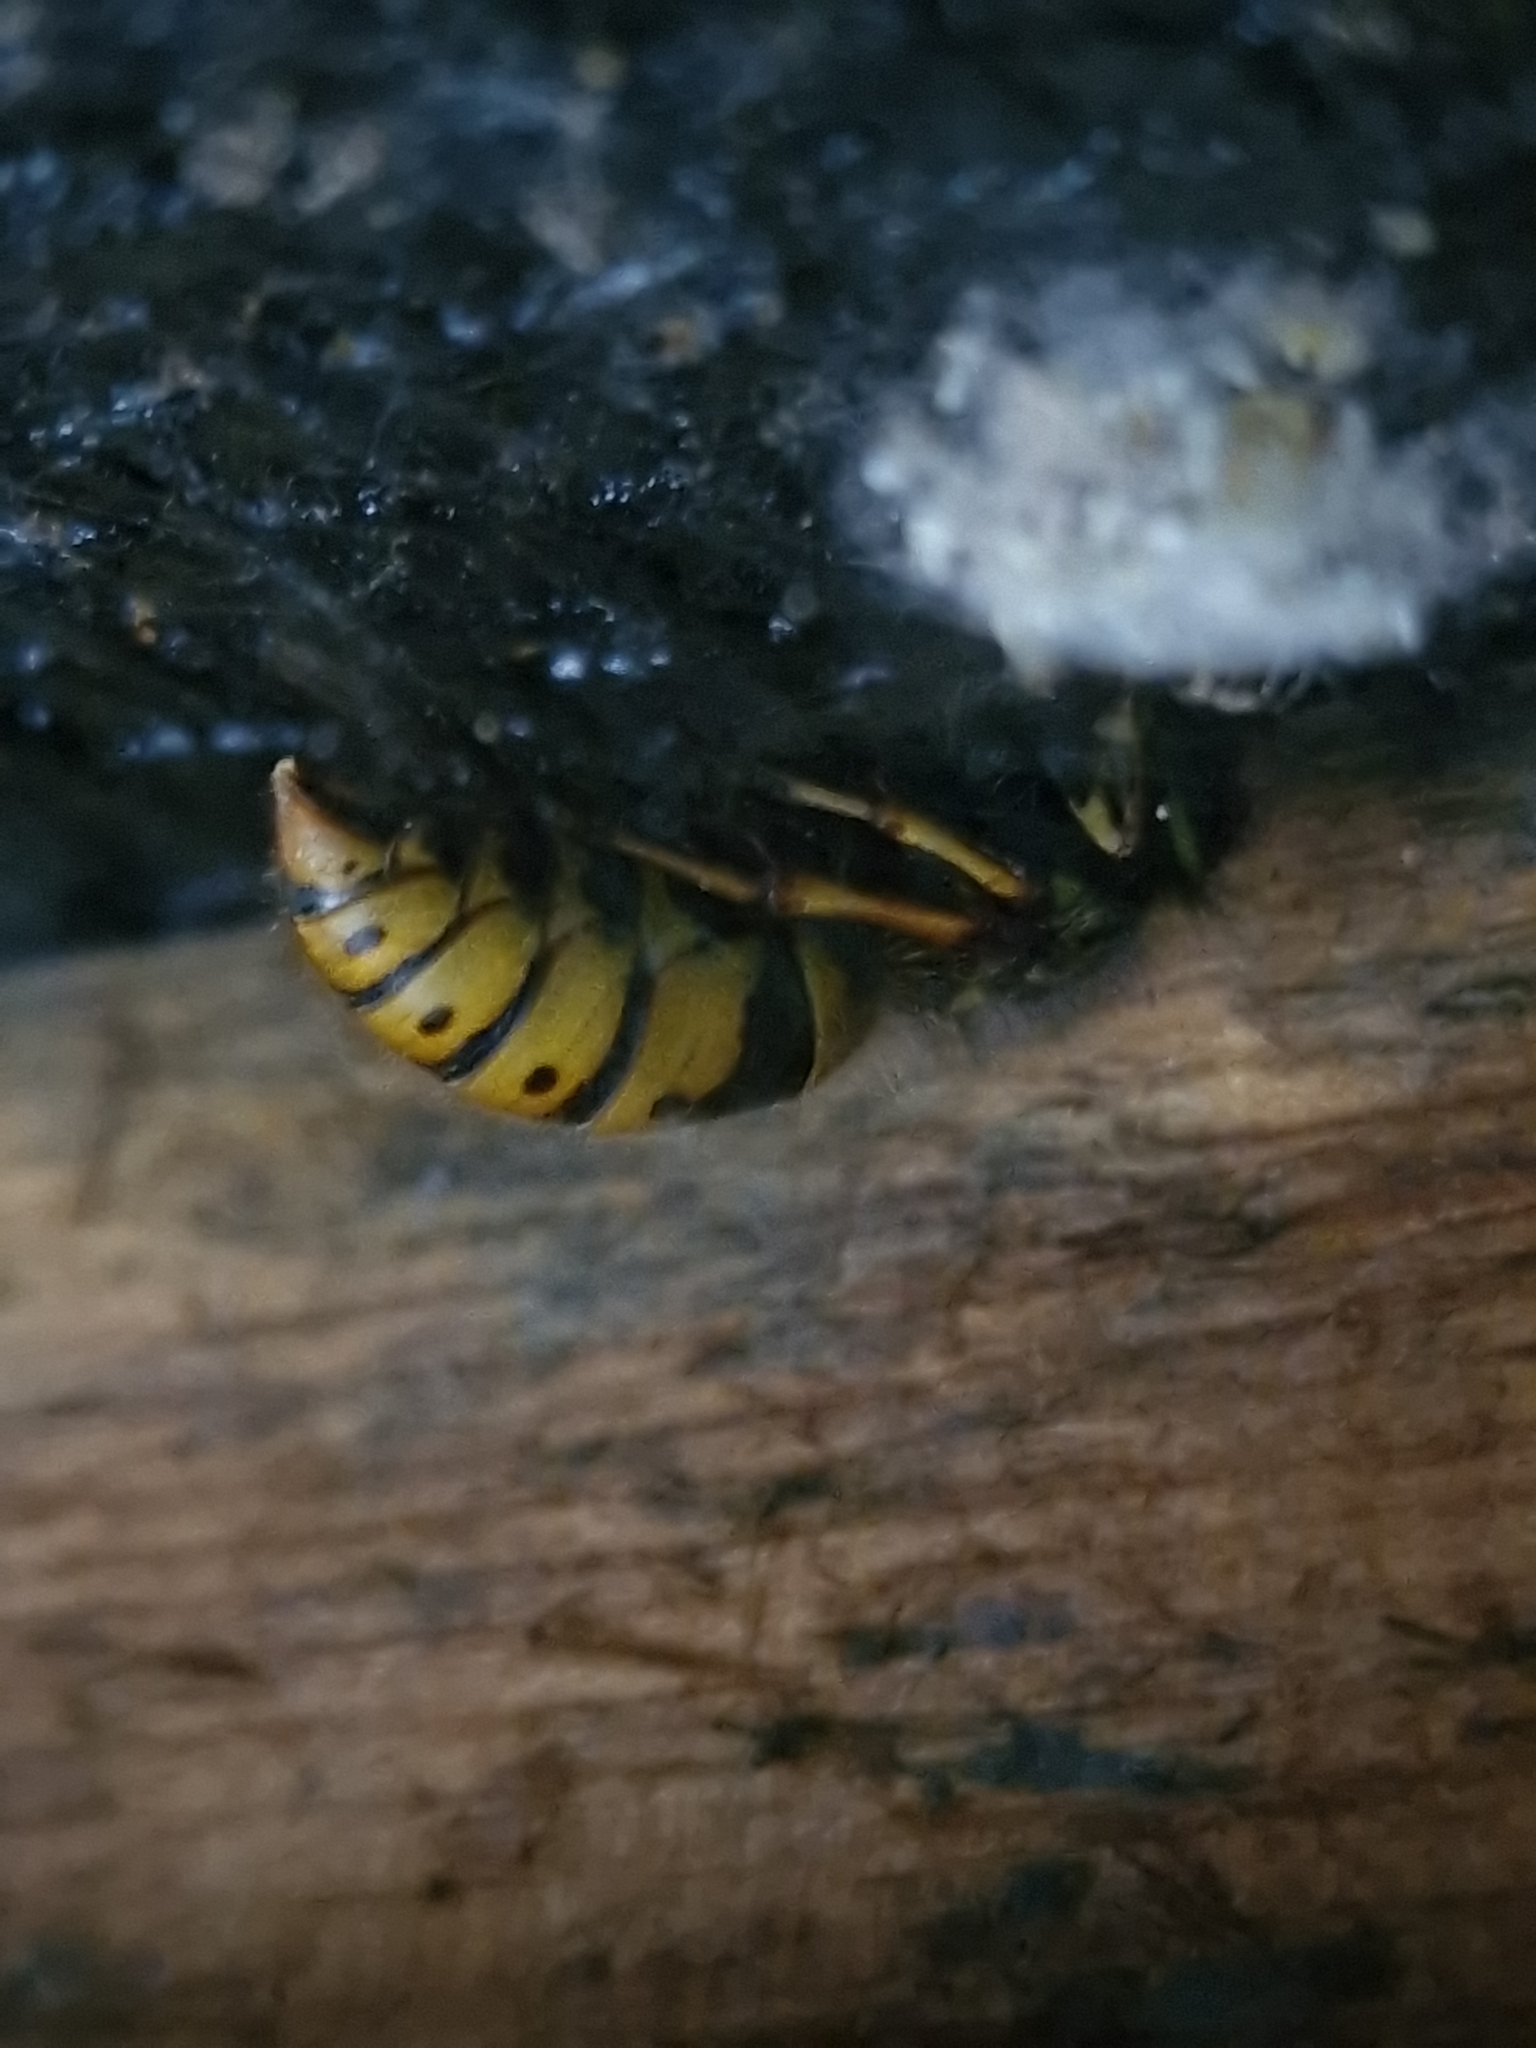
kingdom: Animalia
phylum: Arthropoda
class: Insecta
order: Hymenoptera
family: Vespidae
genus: Vespula
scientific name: Vespula vulgaris
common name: Common wasp
